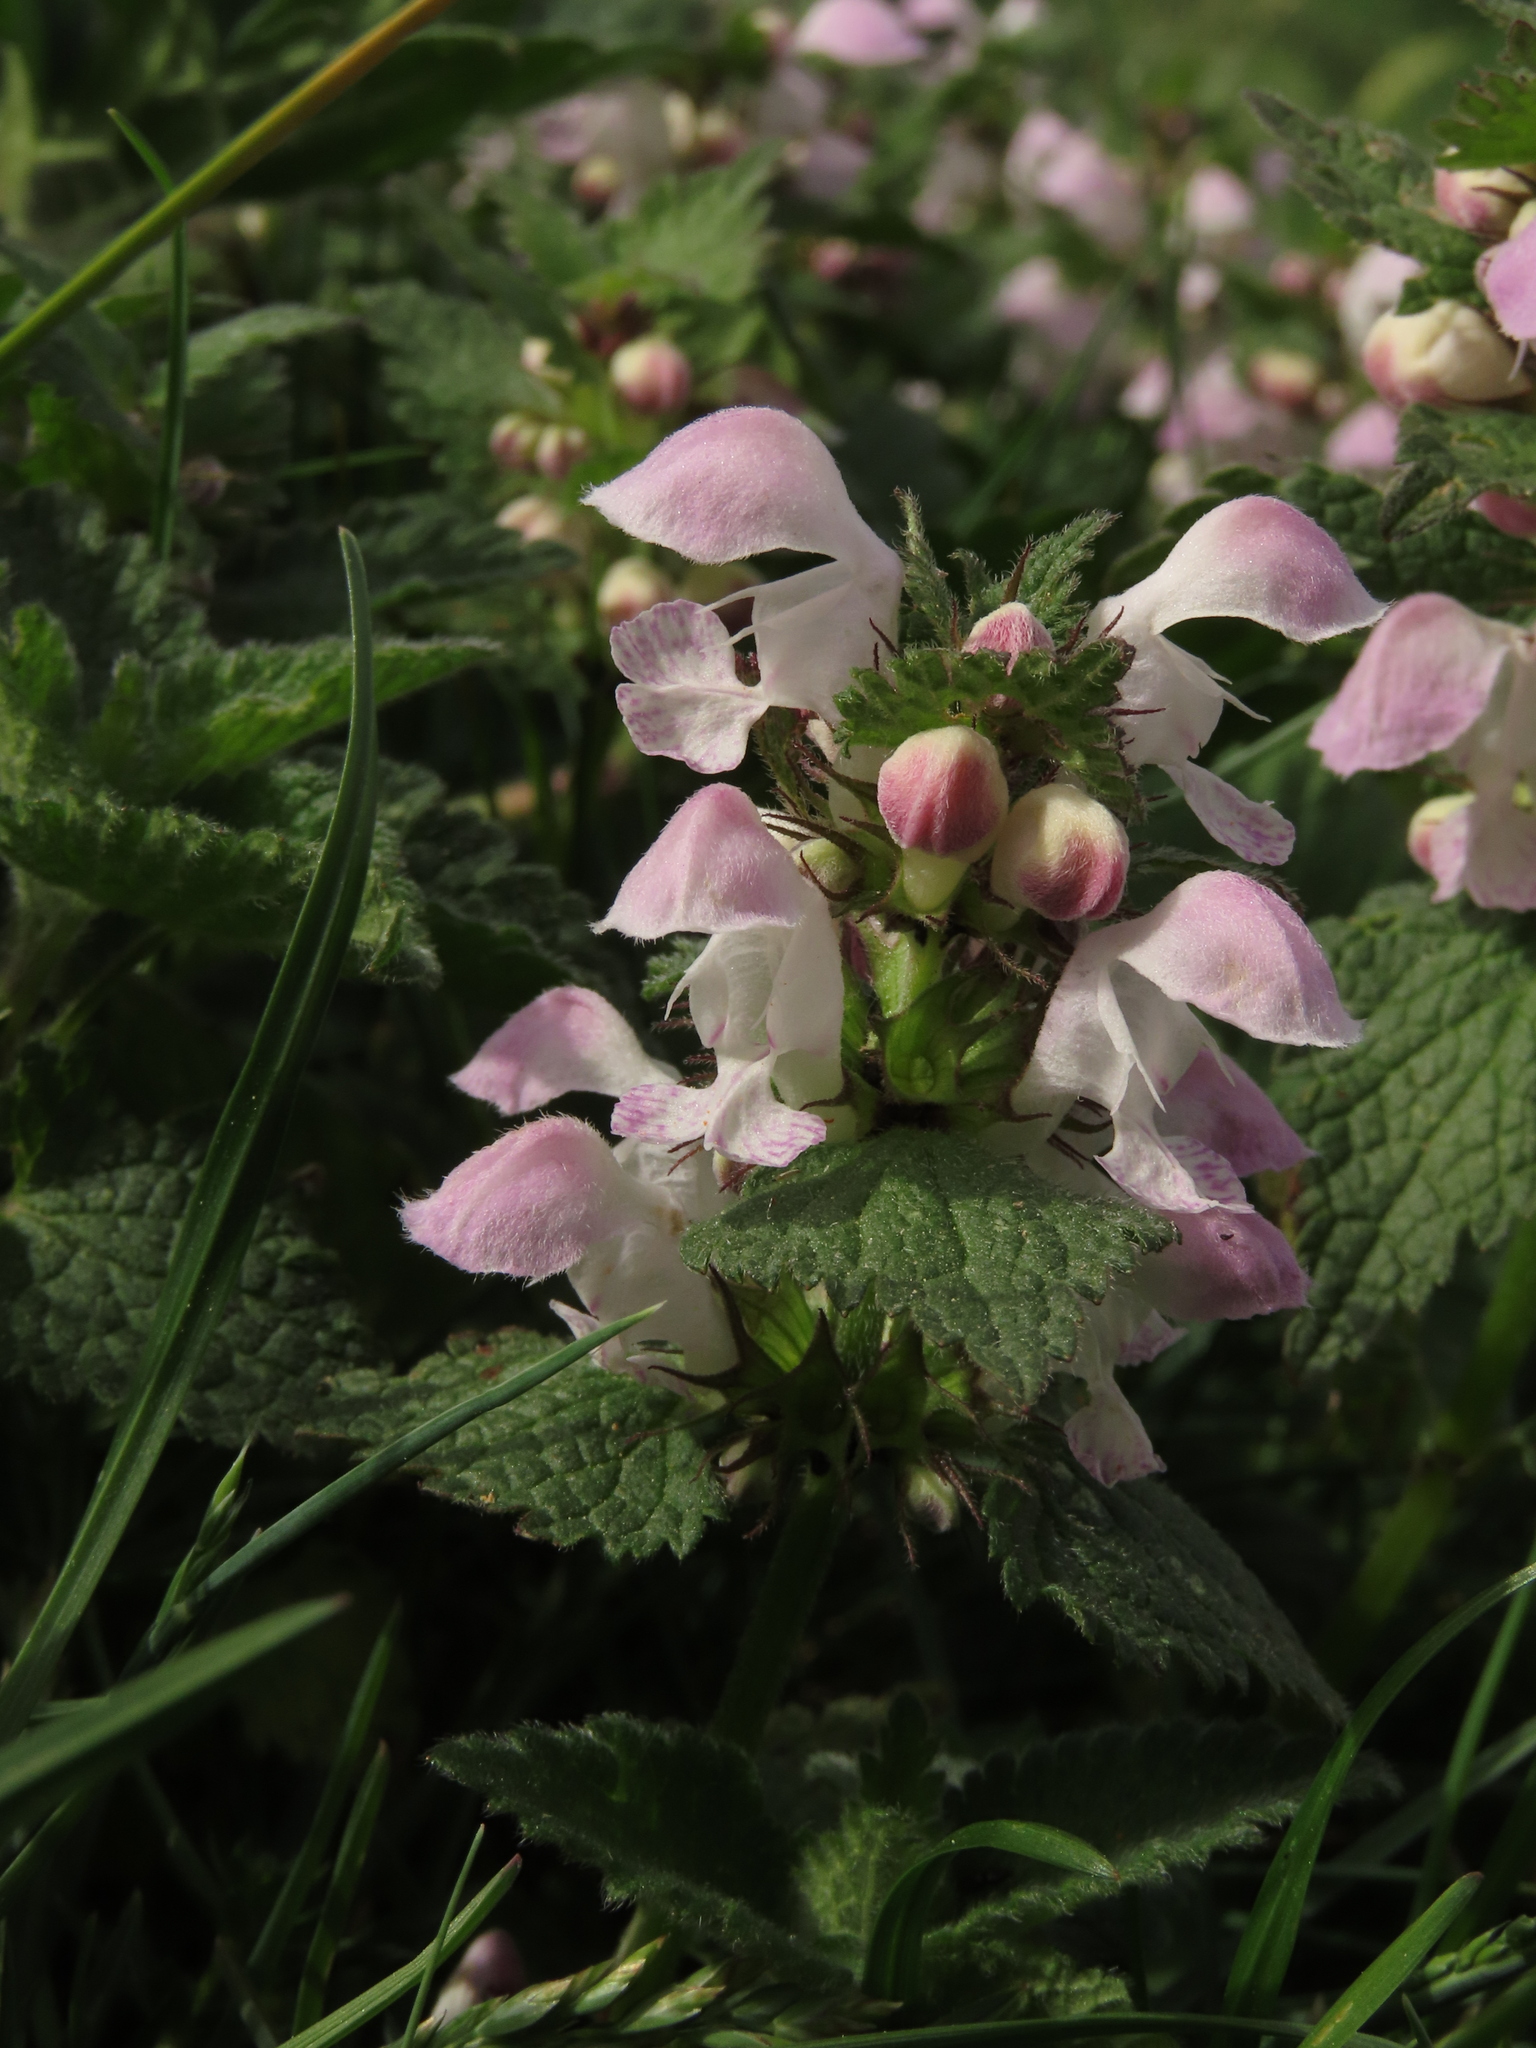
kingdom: Plantae
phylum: Tracheophyta
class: Magnoliopsida
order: Lamiales
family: Lamiaceae
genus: Lamium
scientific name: Lamium maculatum
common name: Spotted dead-nettle
